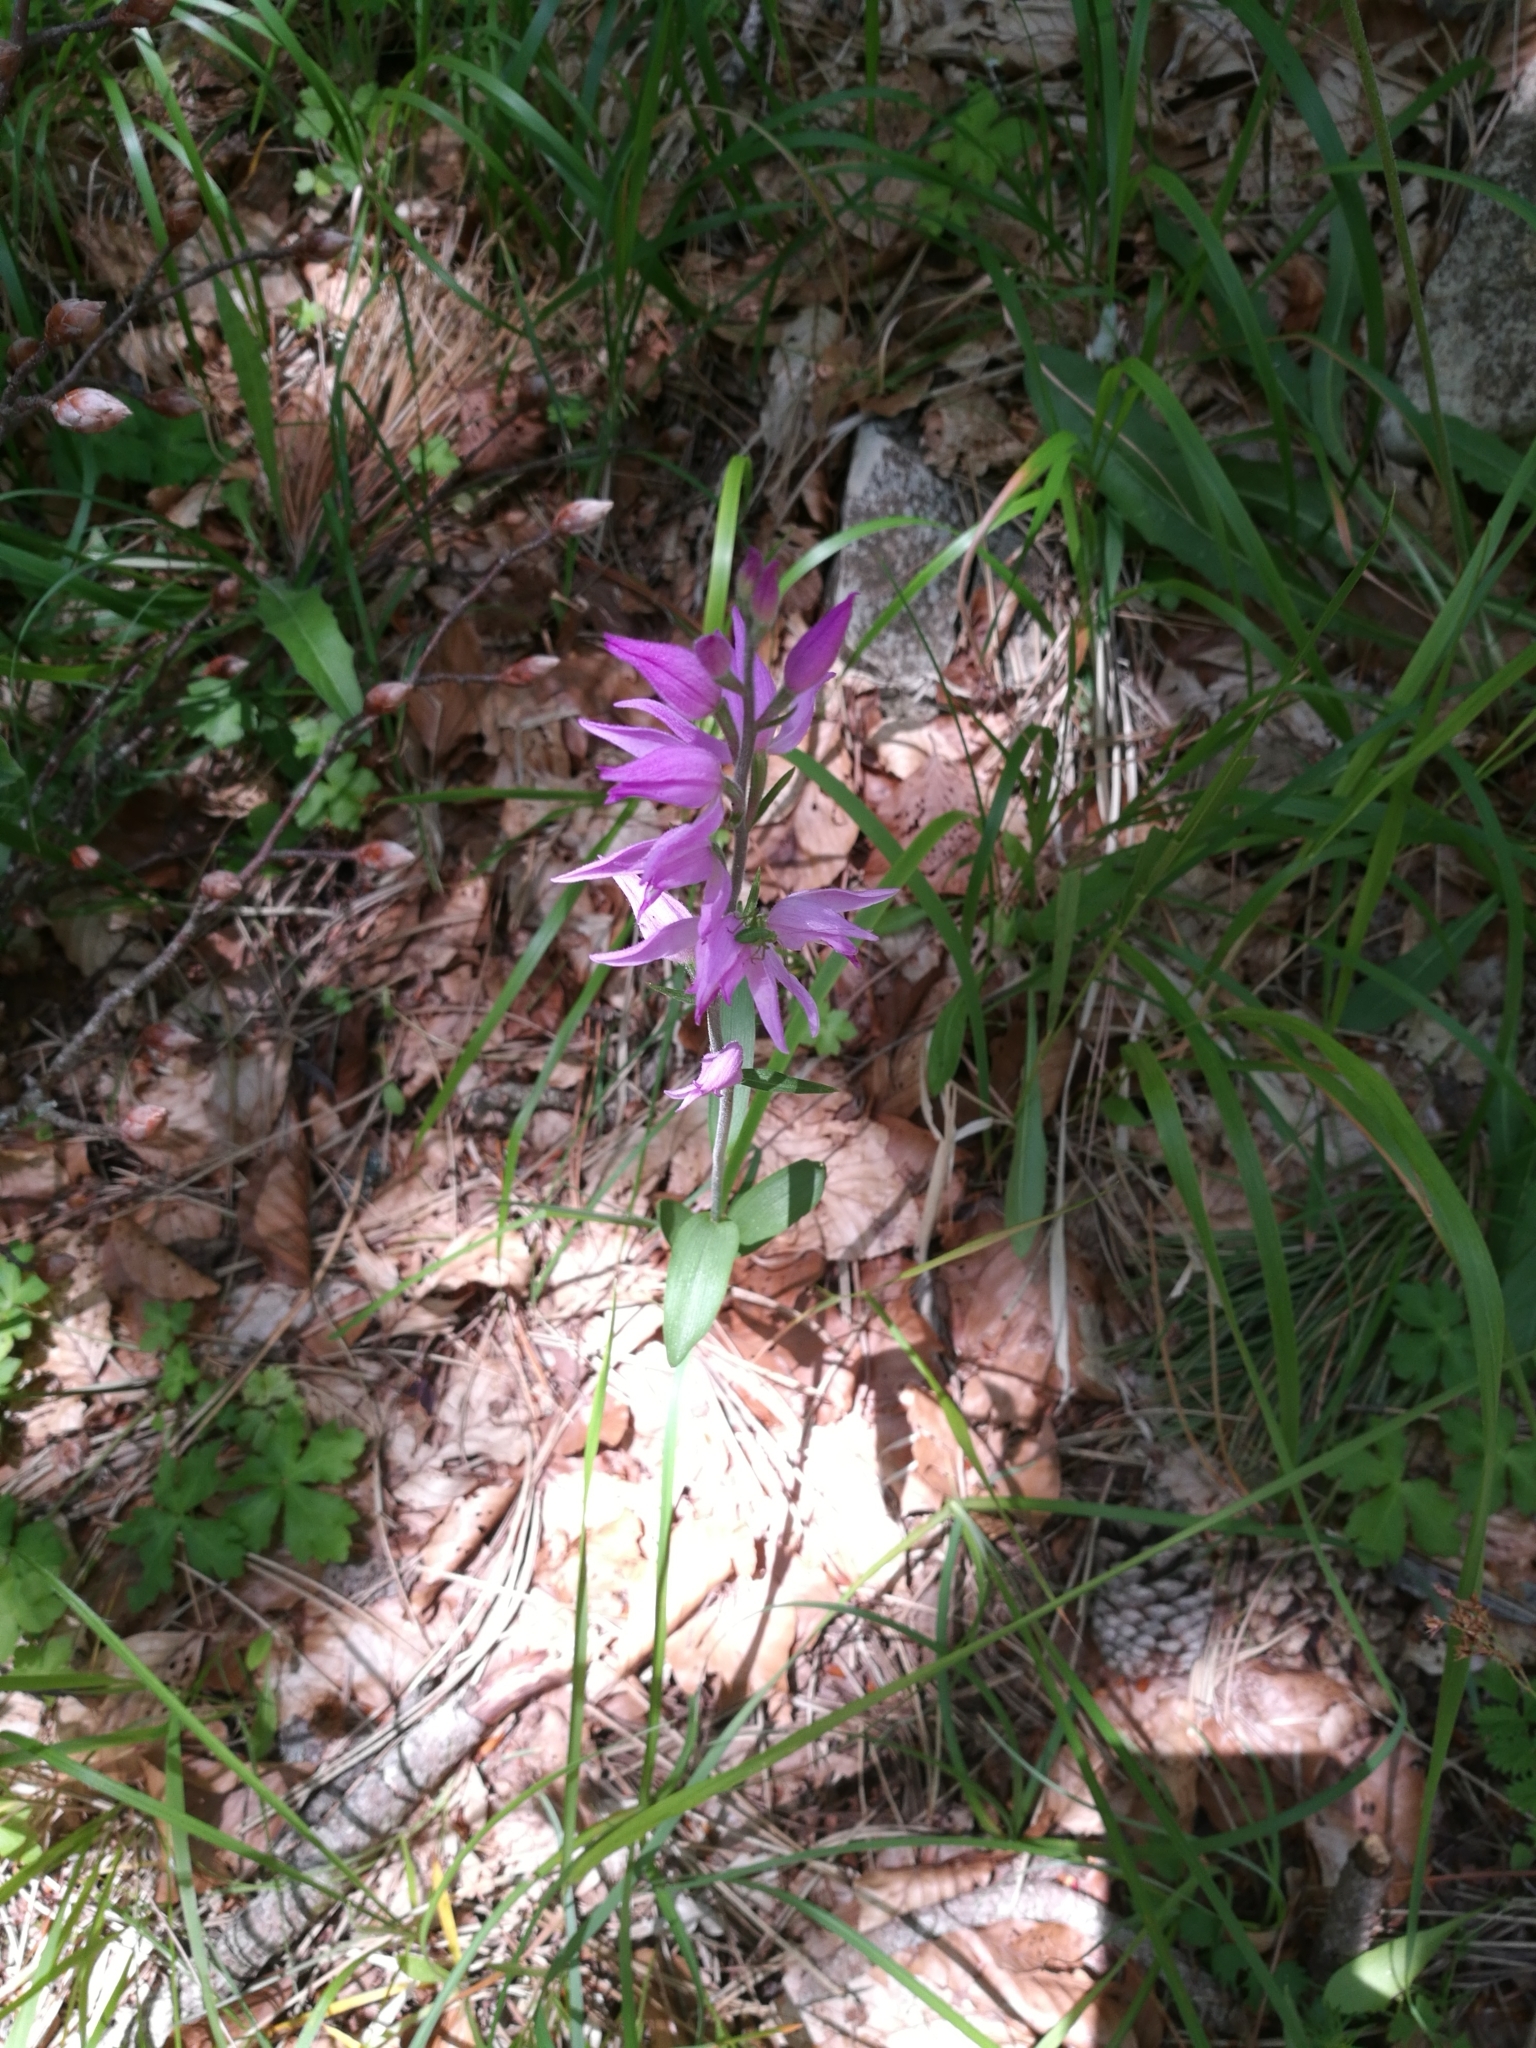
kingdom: Plantae
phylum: Tracheophyta
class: Liliopsida
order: Asparagales
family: Orchidaceae
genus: Cephalanthera
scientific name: Cephalanthera rubra
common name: Red helleborine
